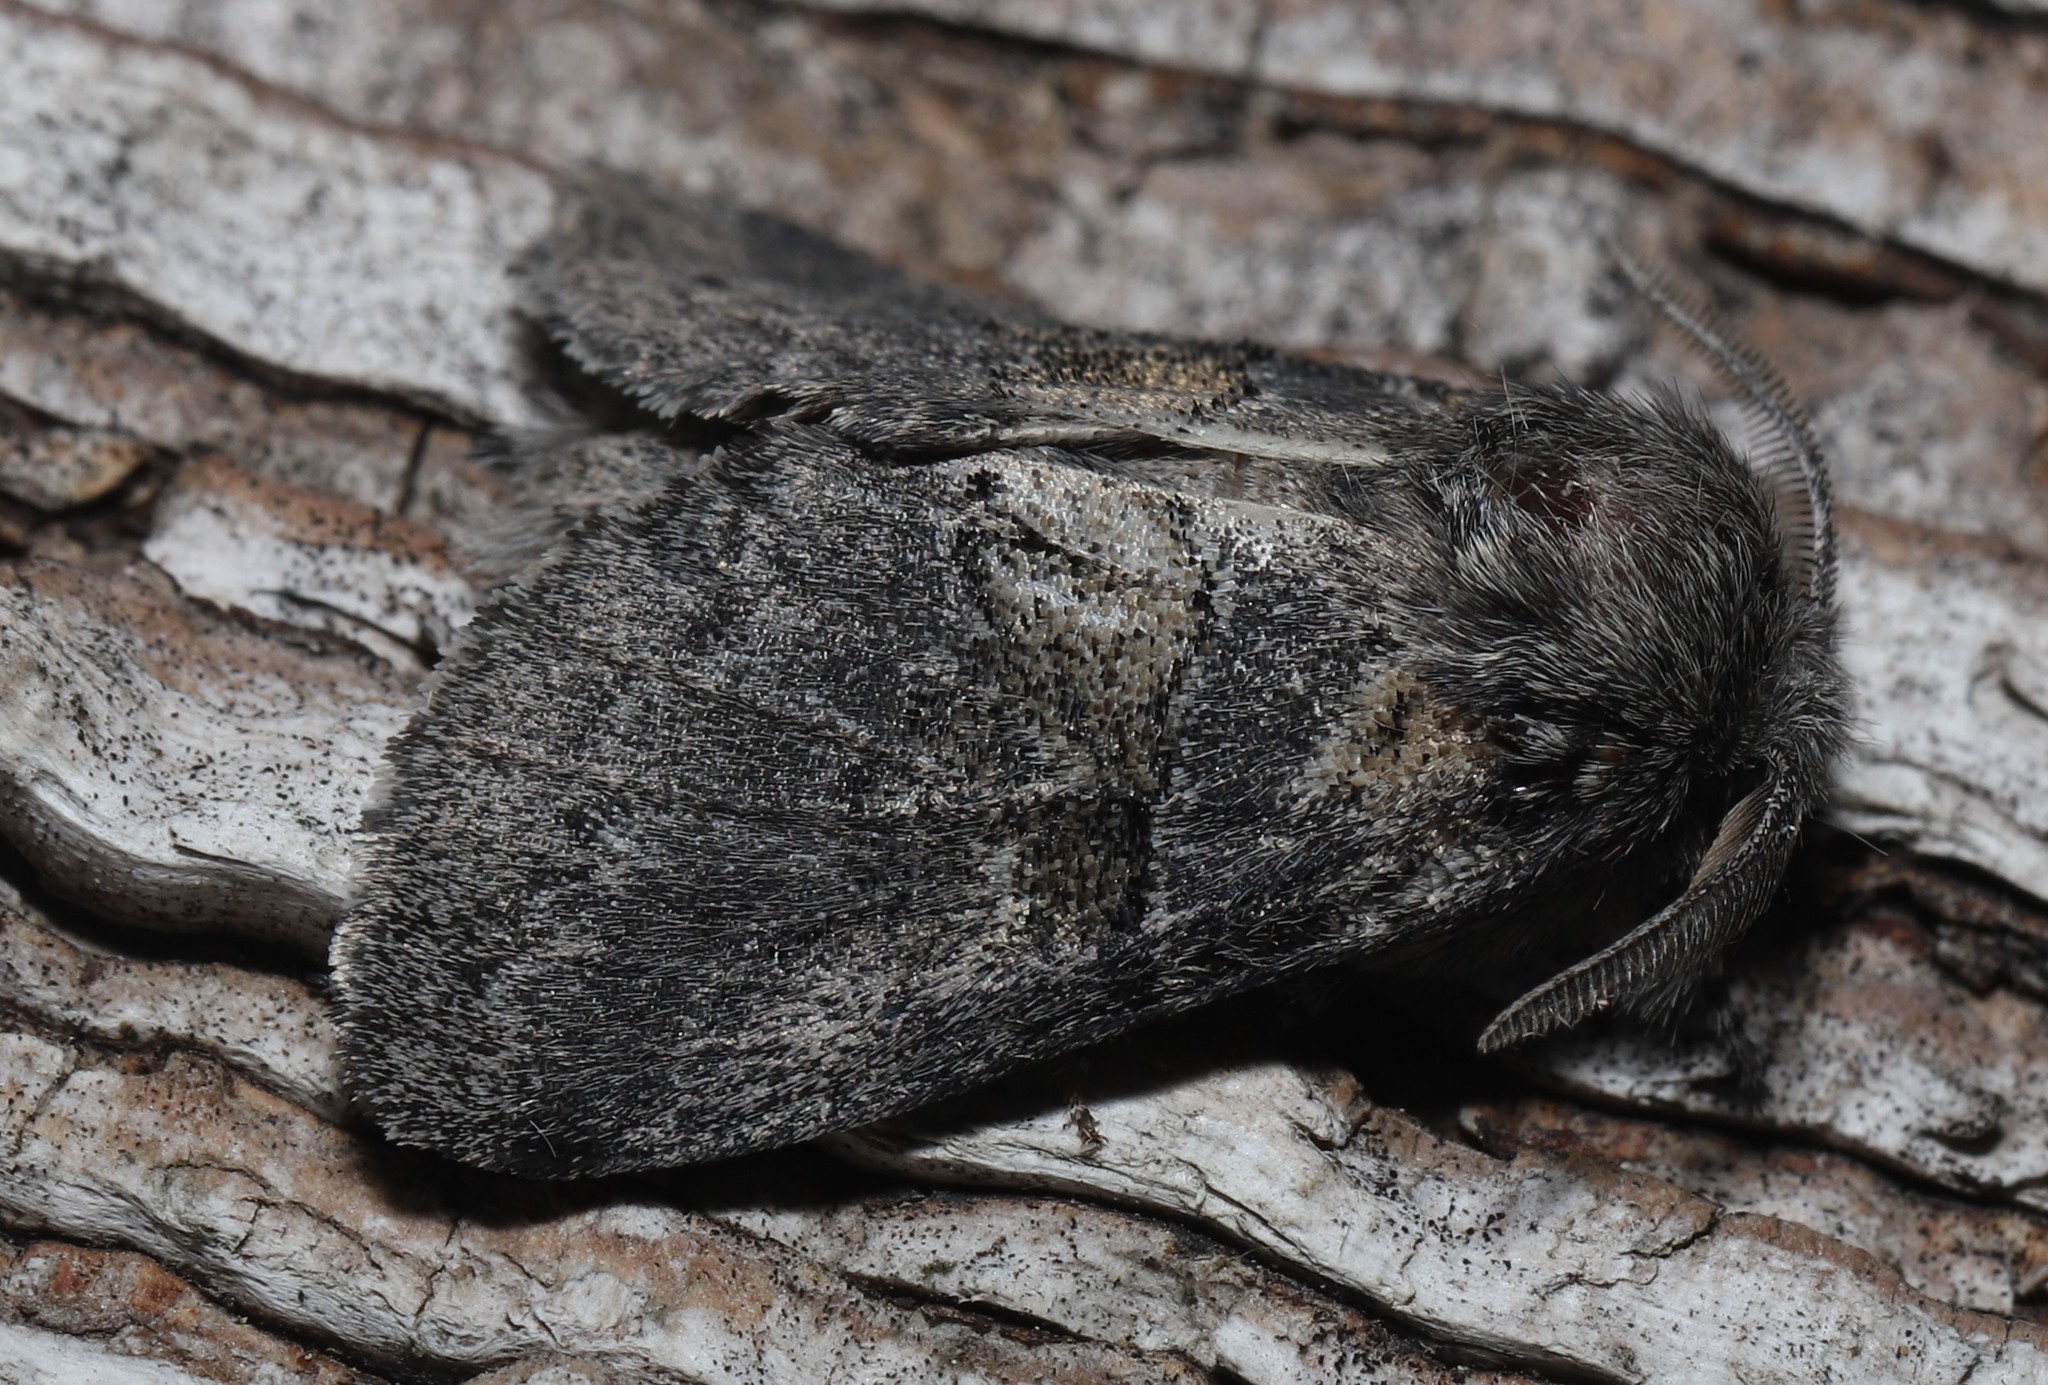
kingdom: Animalia
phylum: Arthropoda
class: Insecta
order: Lepidoptera
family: Notodontidae
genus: Gluphisia
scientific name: Gluphisia septentrionis
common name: Common gluphisia
